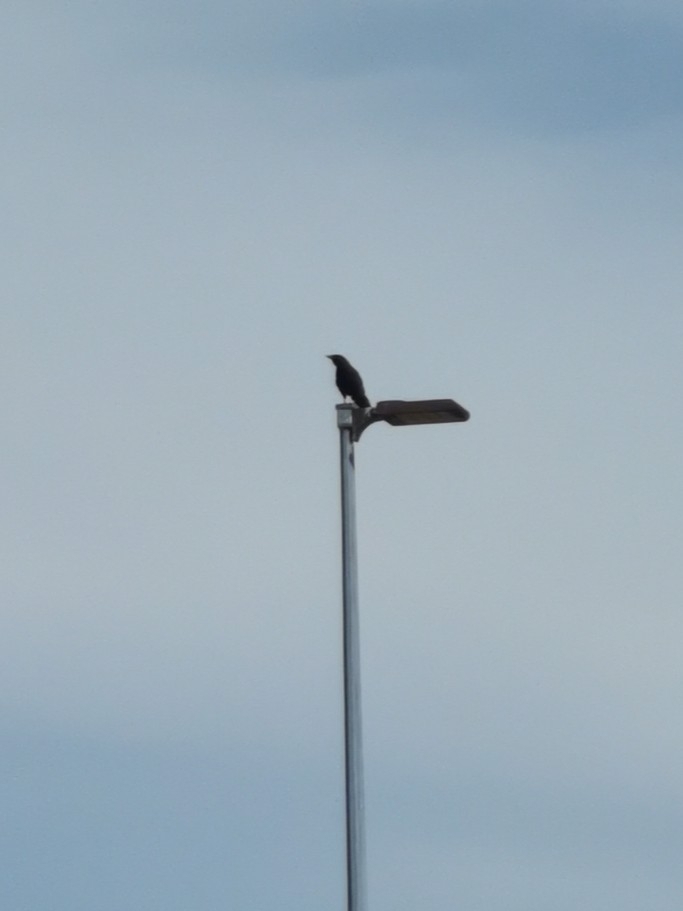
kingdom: Animalia
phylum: Chordata
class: Aves
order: Passeriformes
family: Corvidae
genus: Corvus
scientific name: Corvus brachyrhynchos
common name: American crow
